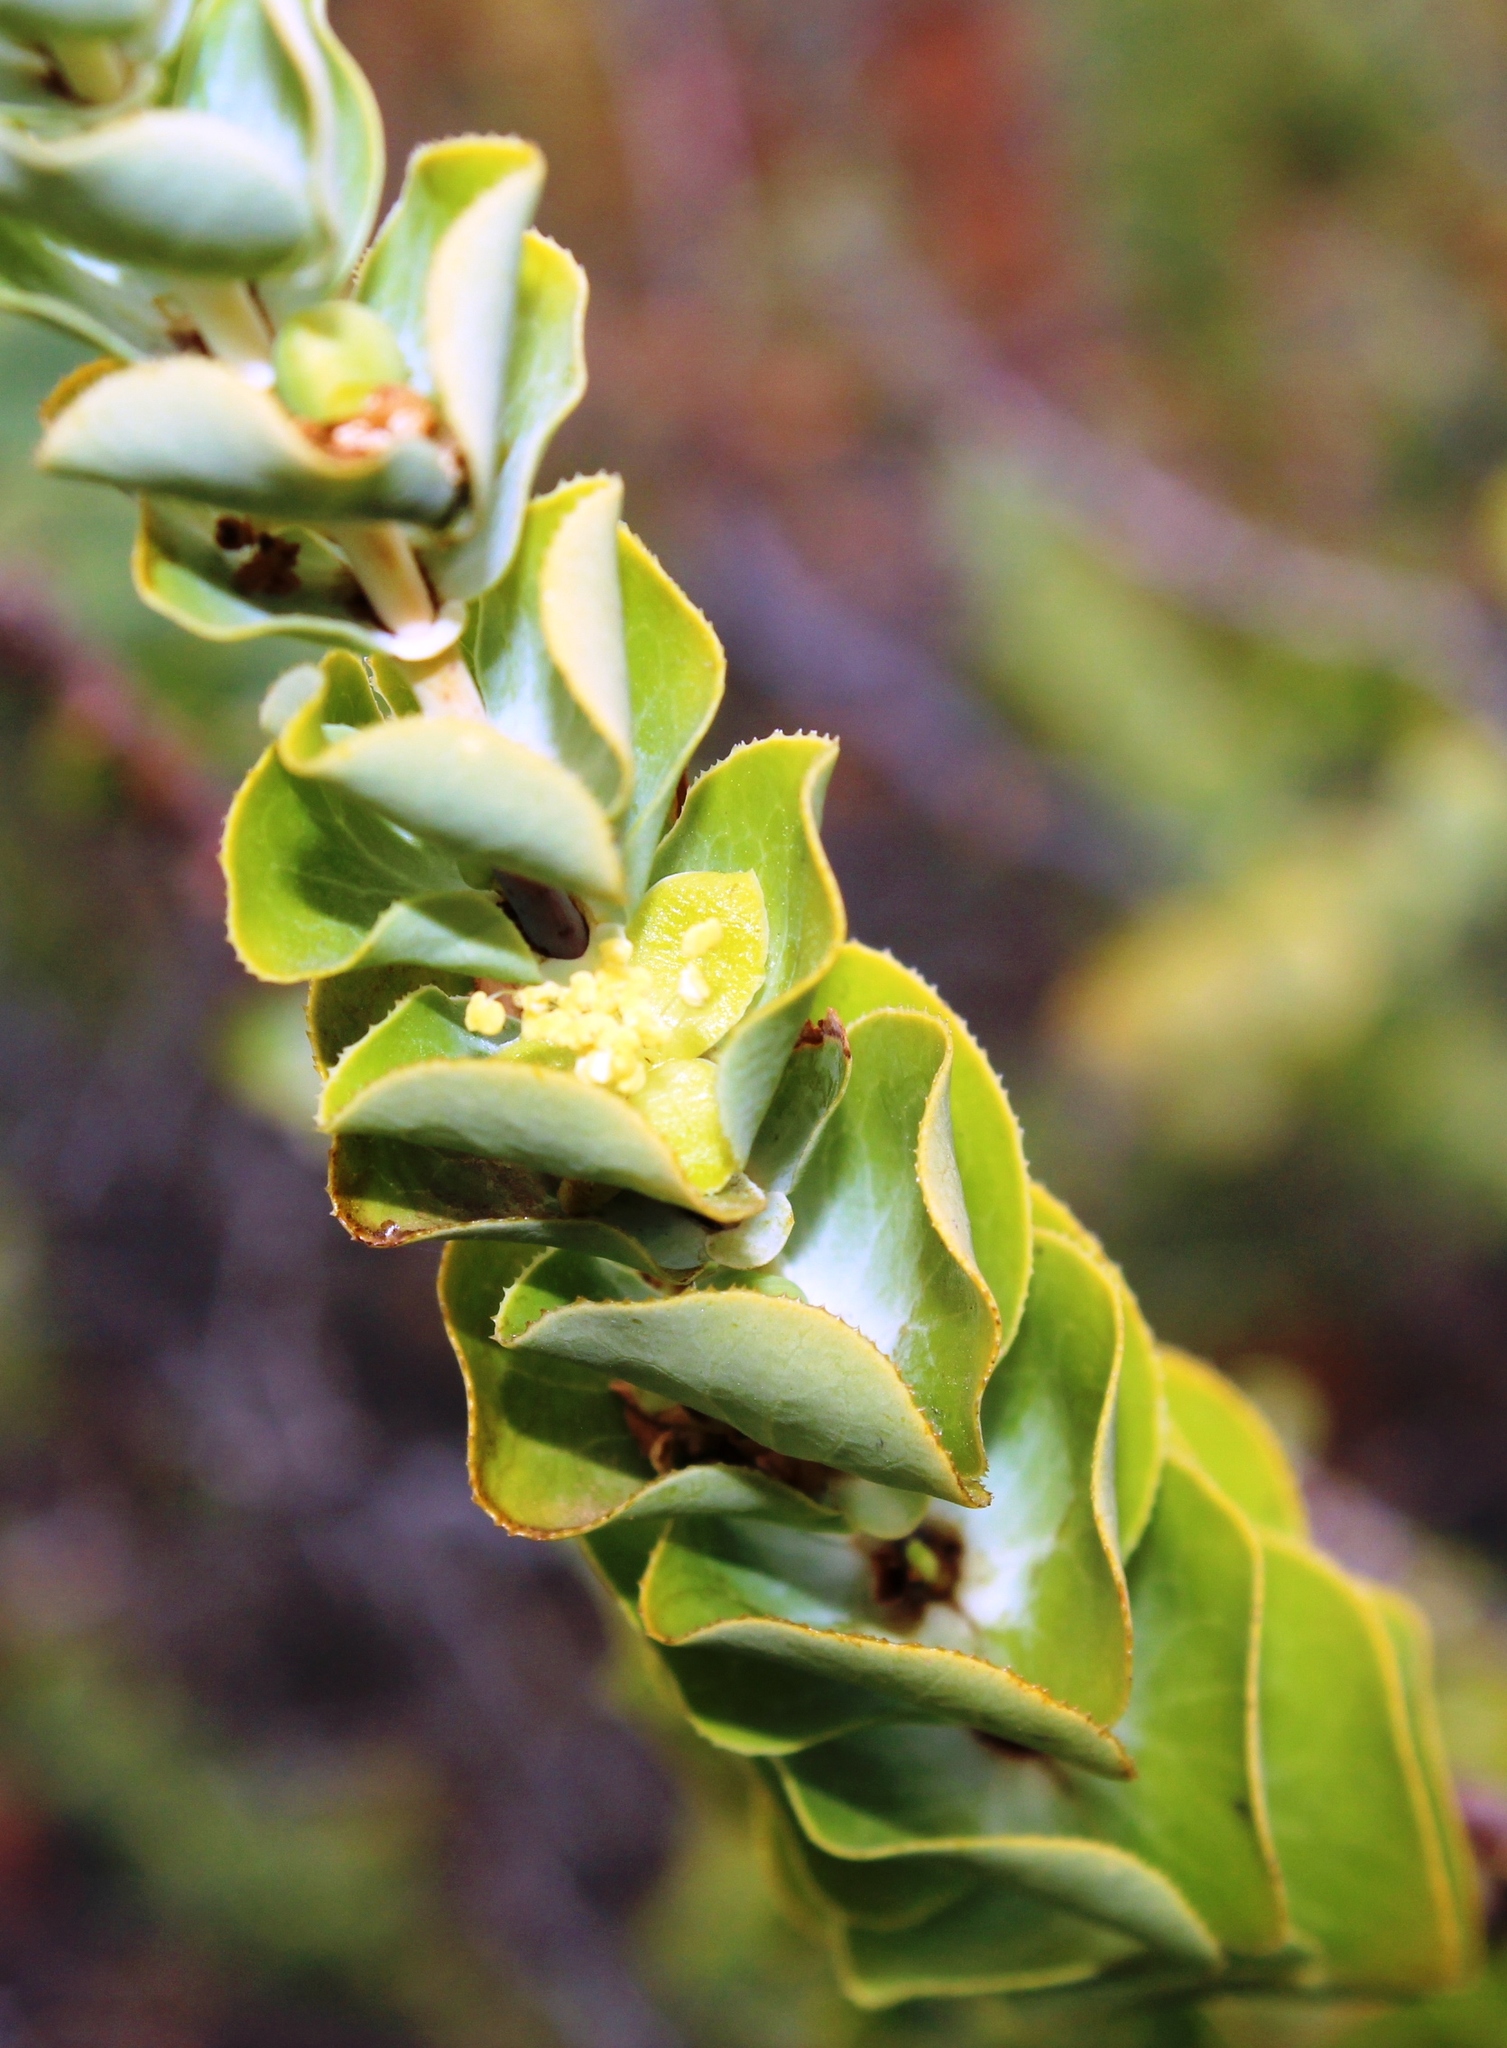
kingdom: Plantae
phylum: Tracheophyta
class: Magnoliopsida
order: Rosales
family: Rosaceae
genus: Cliffortia
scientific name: Cliffortia crenata
